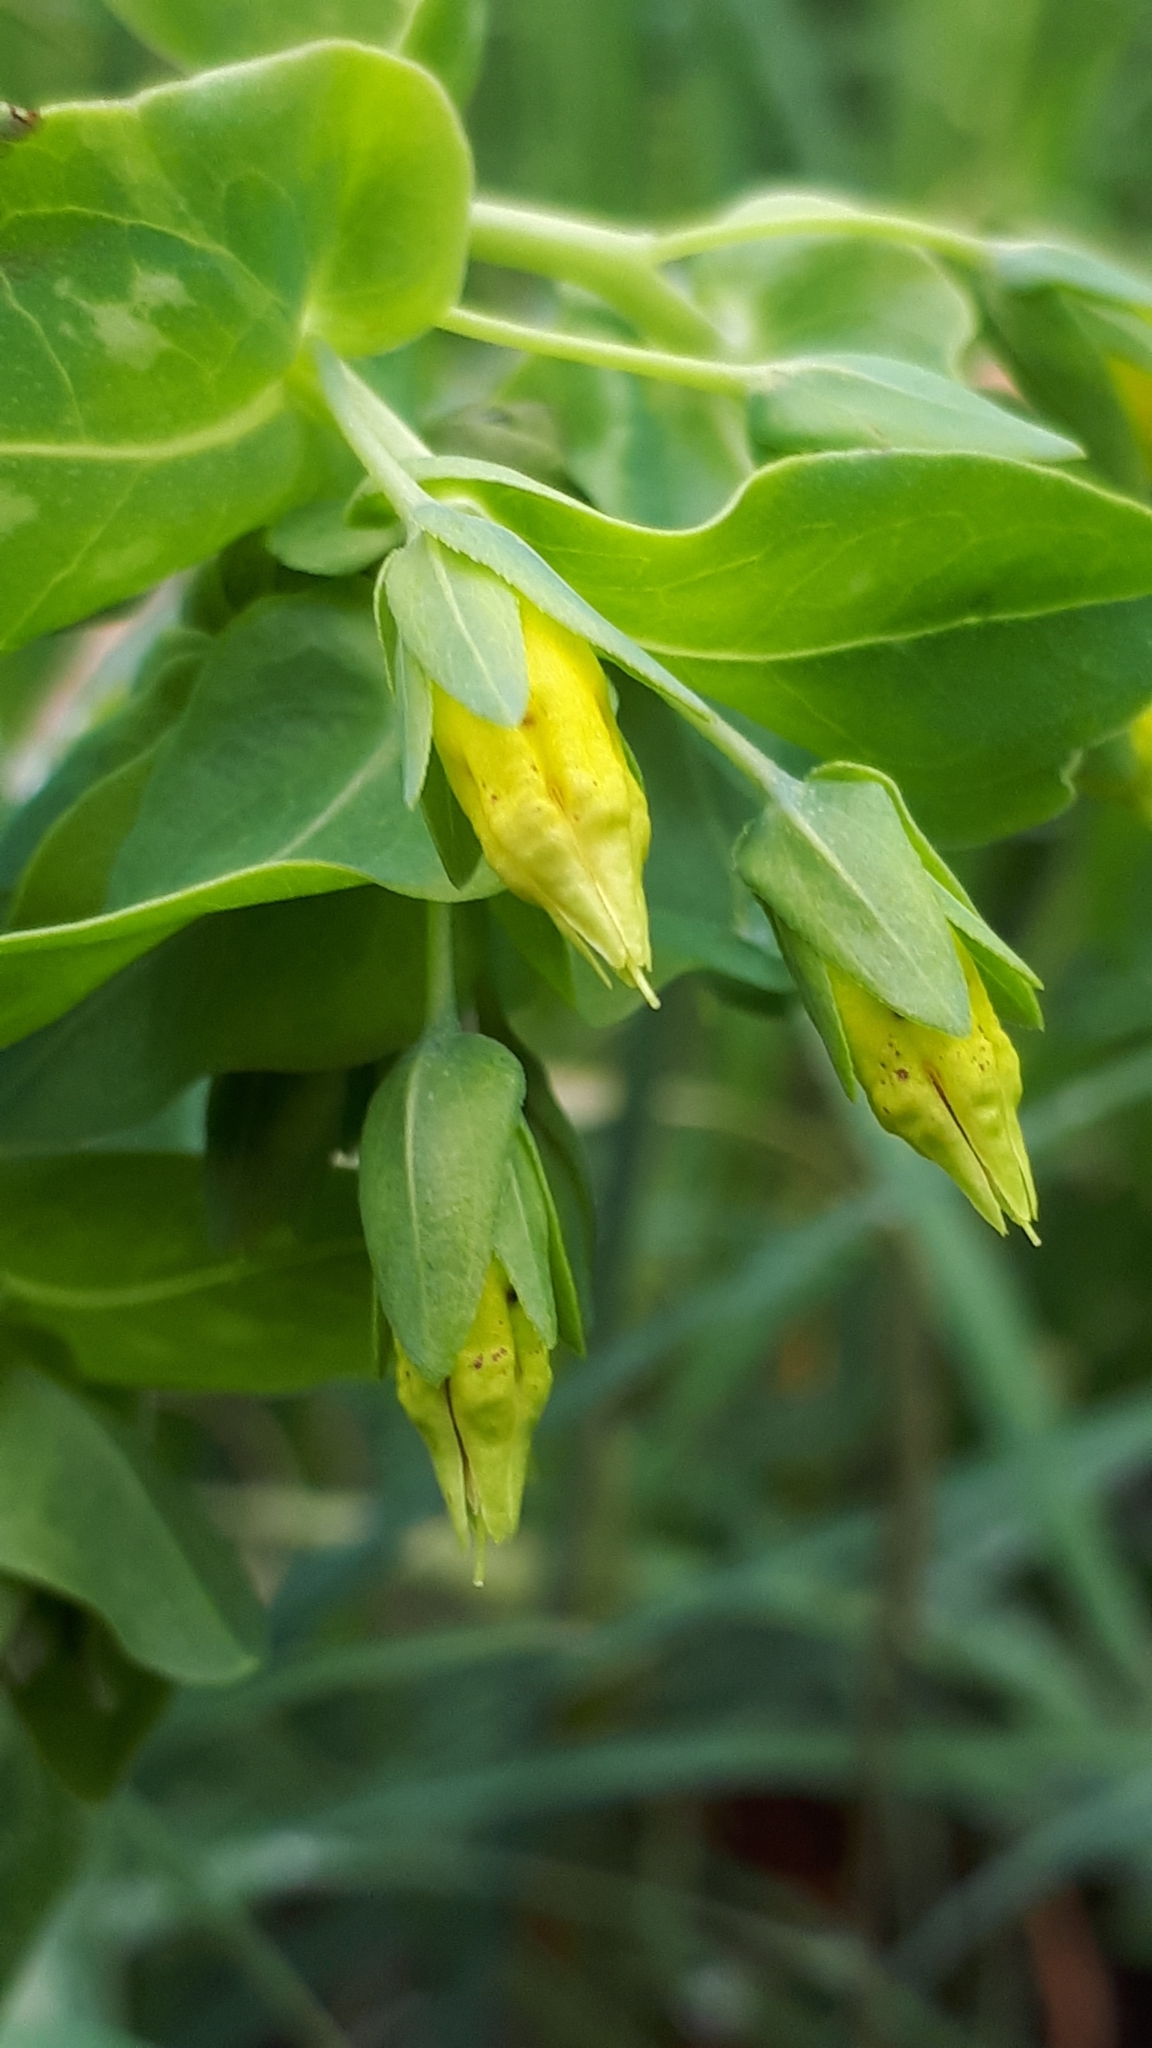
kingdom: Plantae
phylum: Tracheophyta
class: Magnoliopsida
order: Boraginales
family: Boraginaceae
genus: Cerinthe
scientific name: Cerinthe minor
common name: Lesser honeywort
